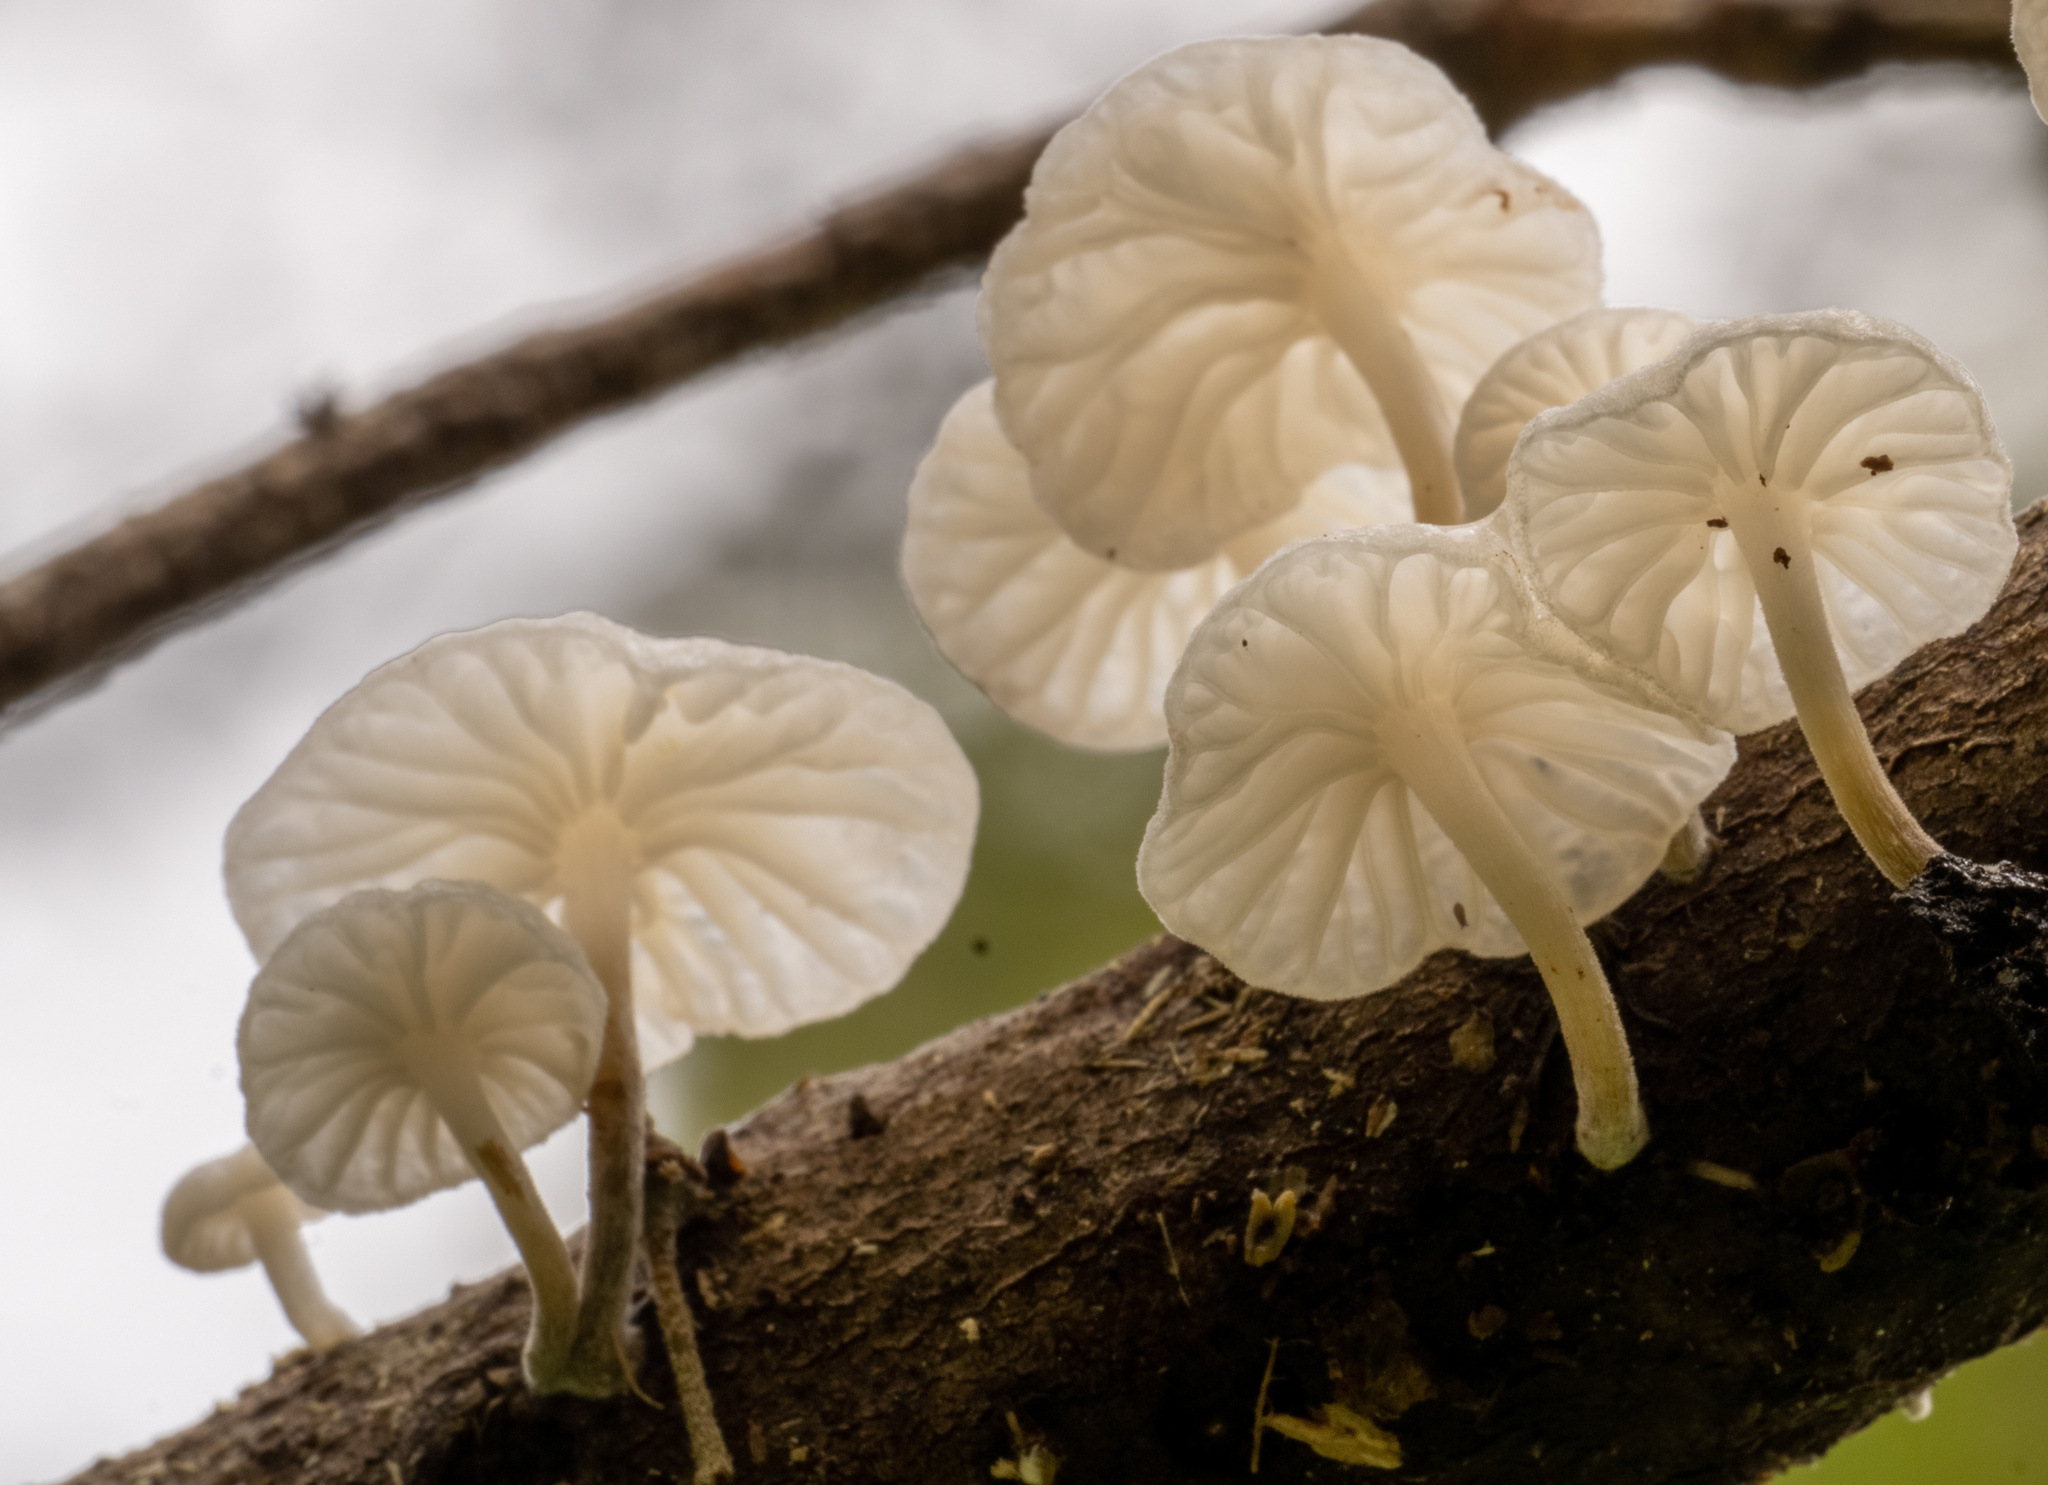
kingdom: Fungi
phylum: Basidiomycota
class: Agaricomycetes
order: Agaricales
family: Omphalotaceae
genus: Marasmiellus
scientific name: Marasmiellus candidus
